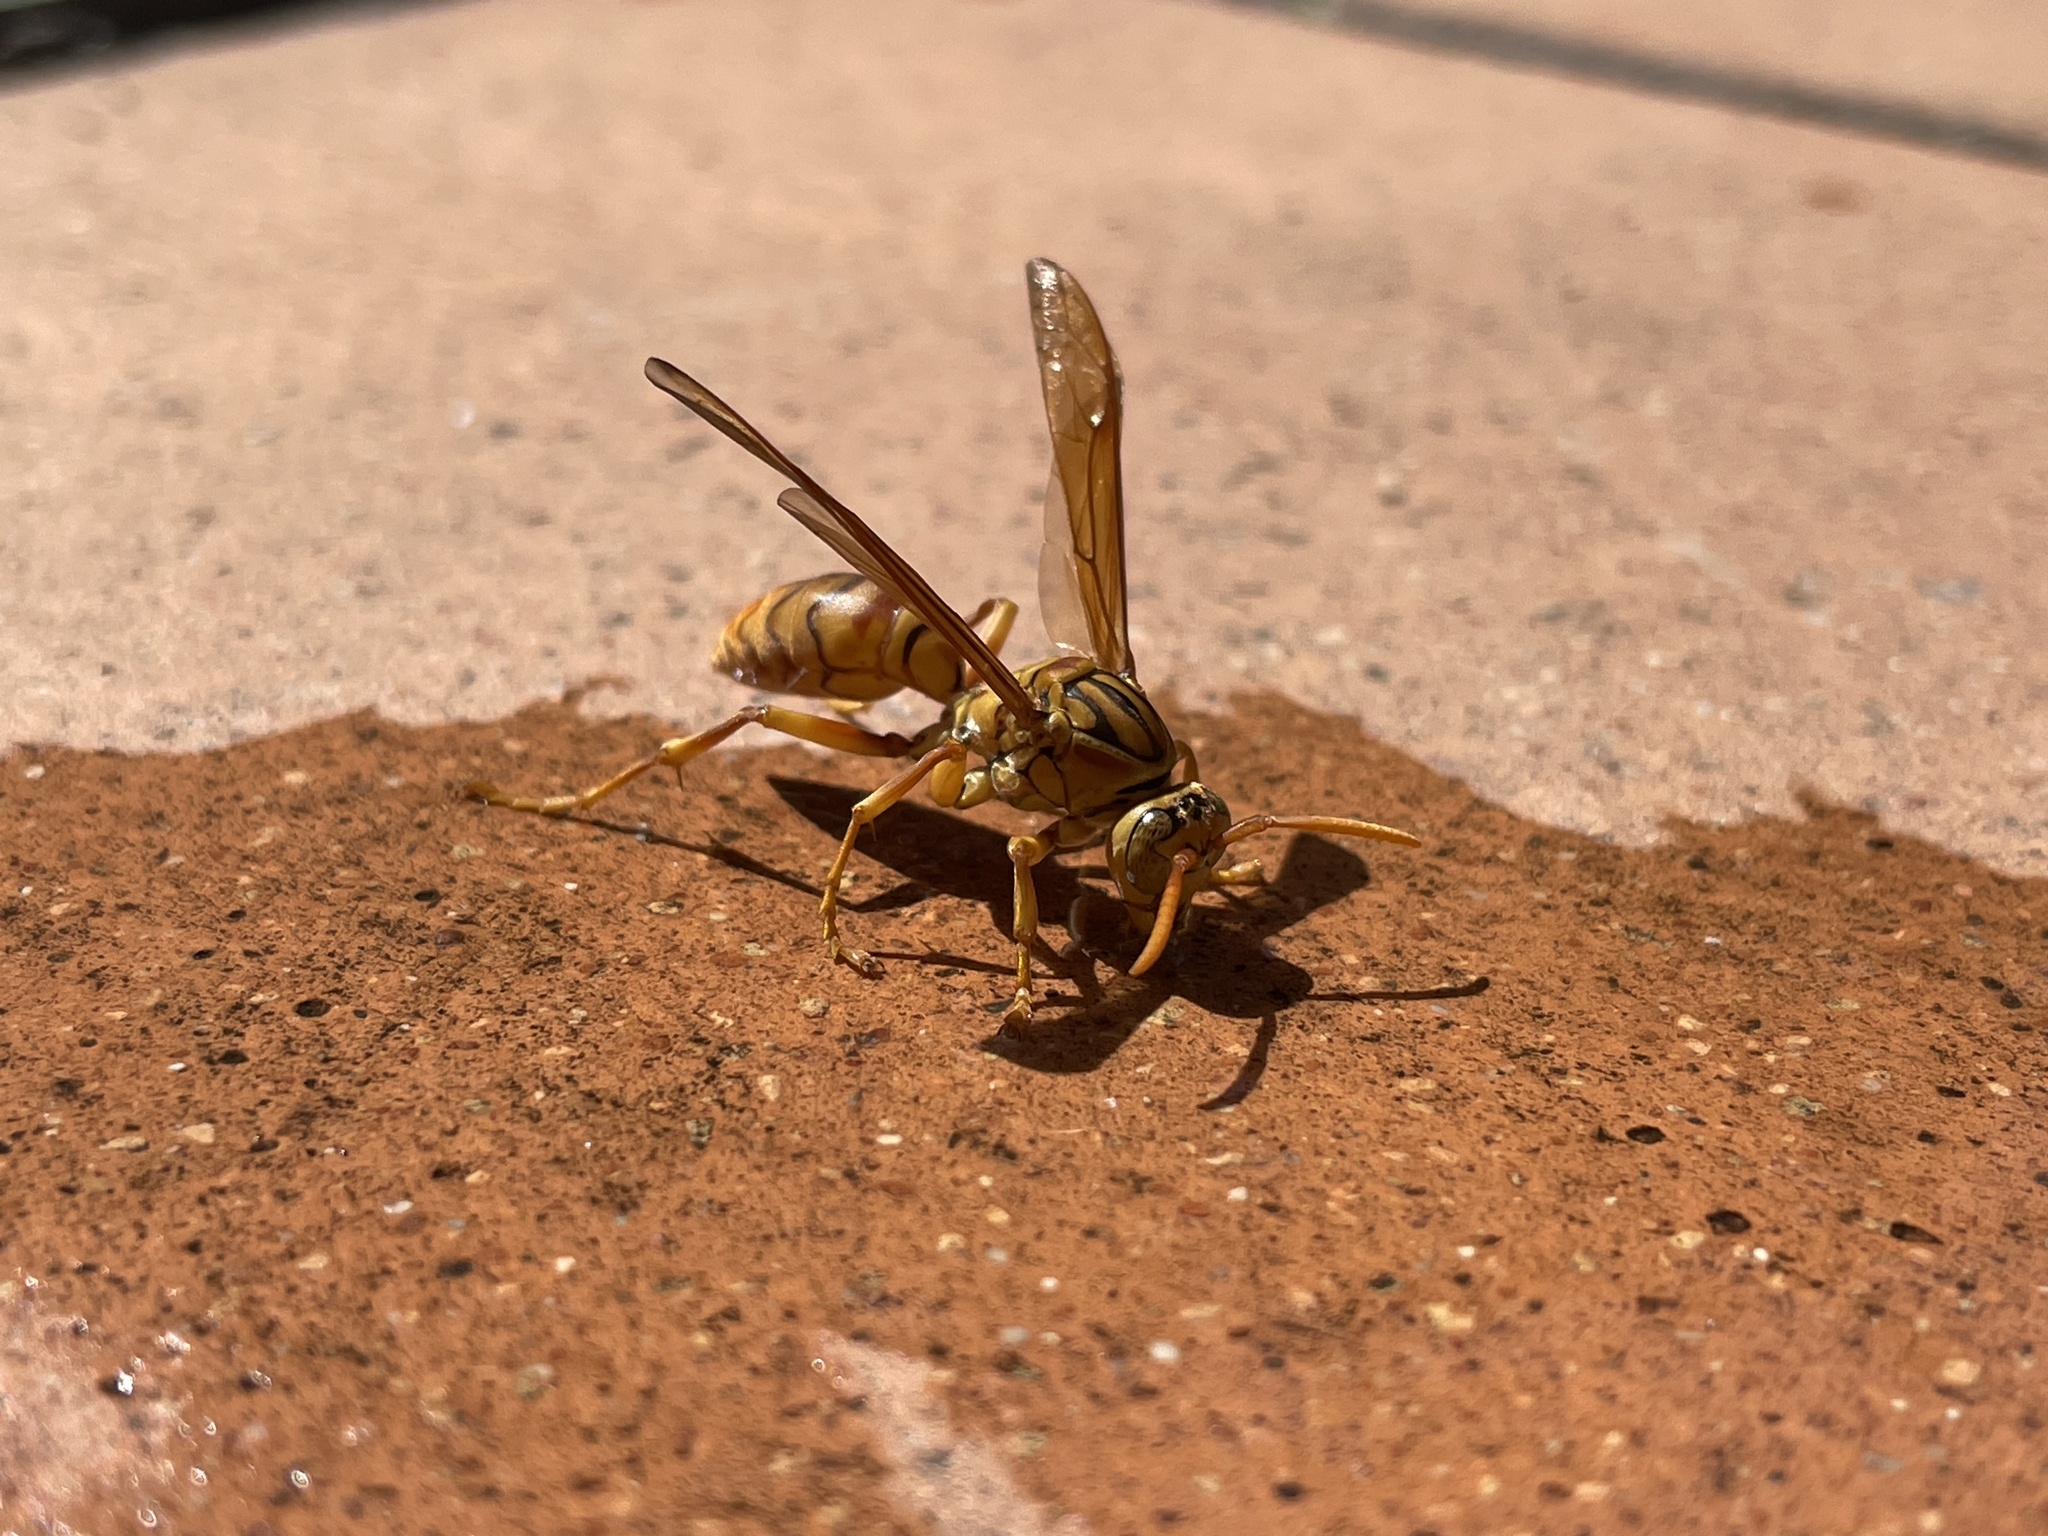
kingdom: Animalia
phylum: Arthropoda
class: Insecta
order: Hymenoptera
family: Eumenidae
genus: Polistes
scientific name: Polistes olivaceus
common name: Paper wasp
